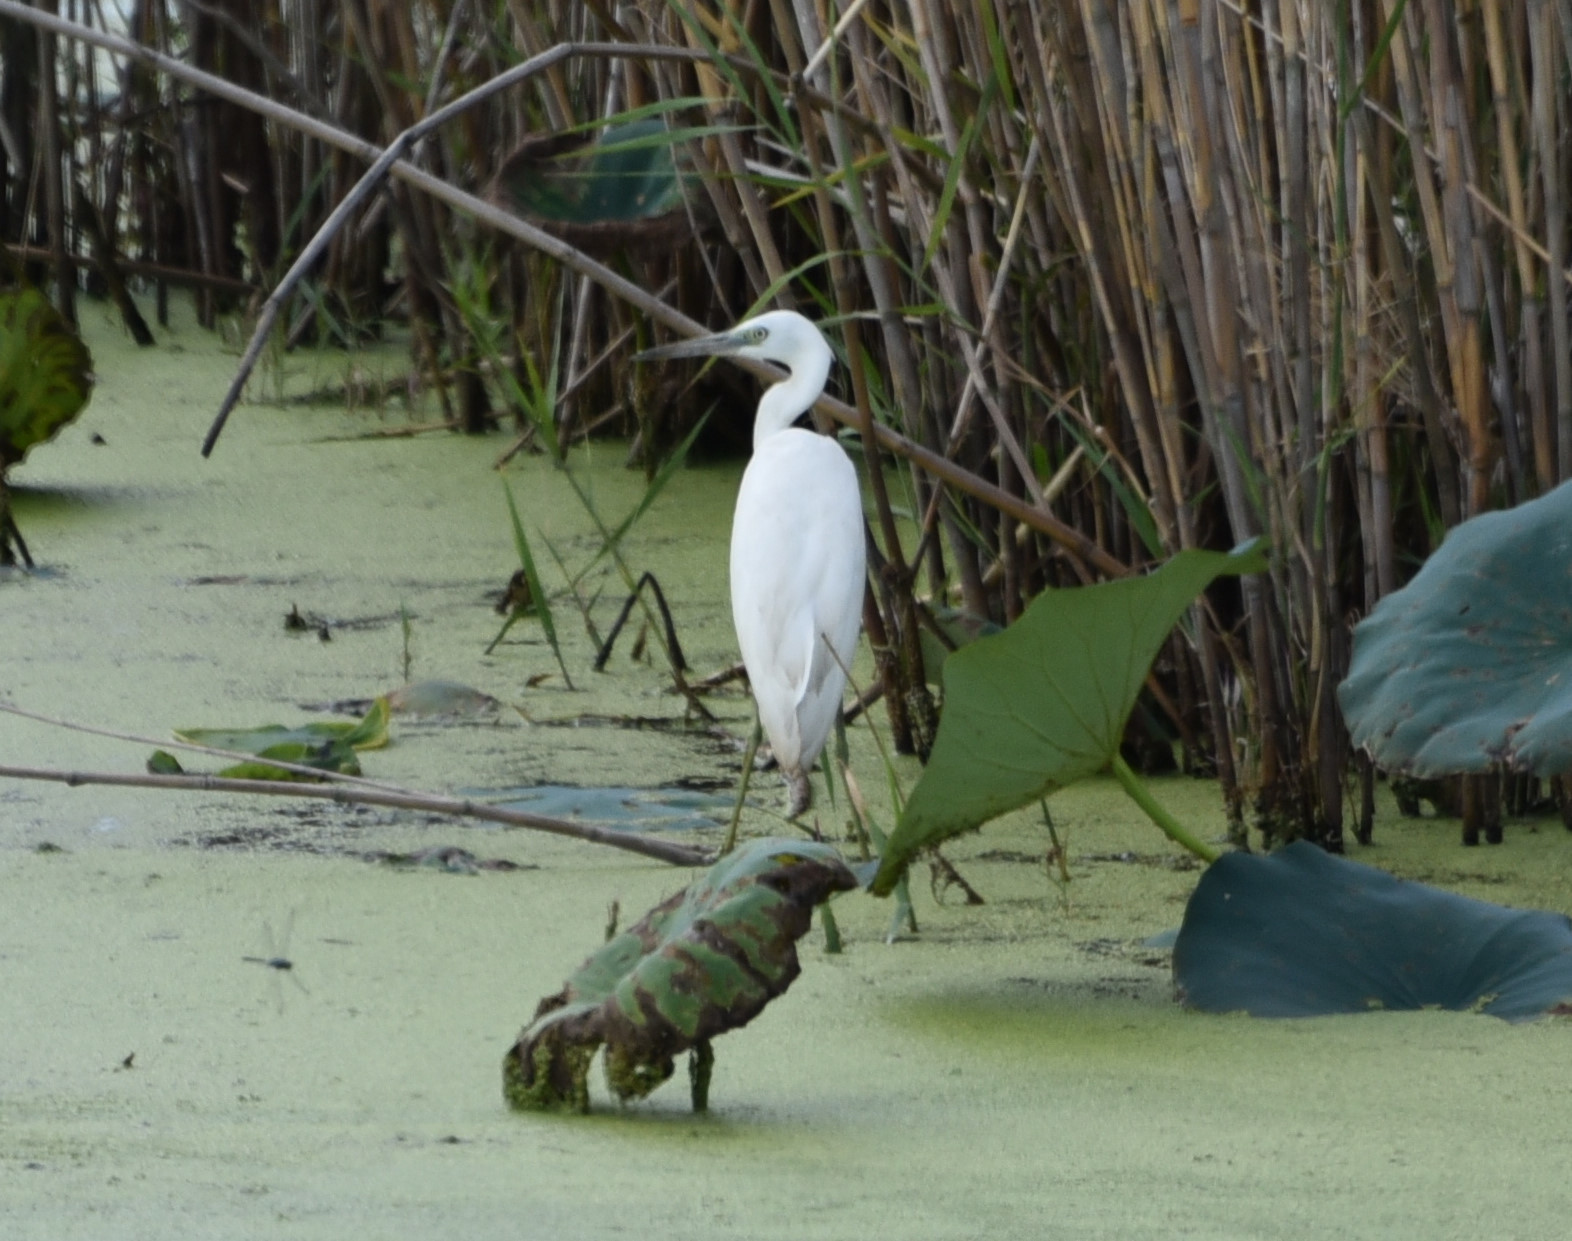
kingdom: Animalia
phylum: Chordata
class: Aves
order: Pelecaniformes
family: Ardeidae
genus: Egretta
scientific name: Egretta caerulea
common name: Little blue heron
